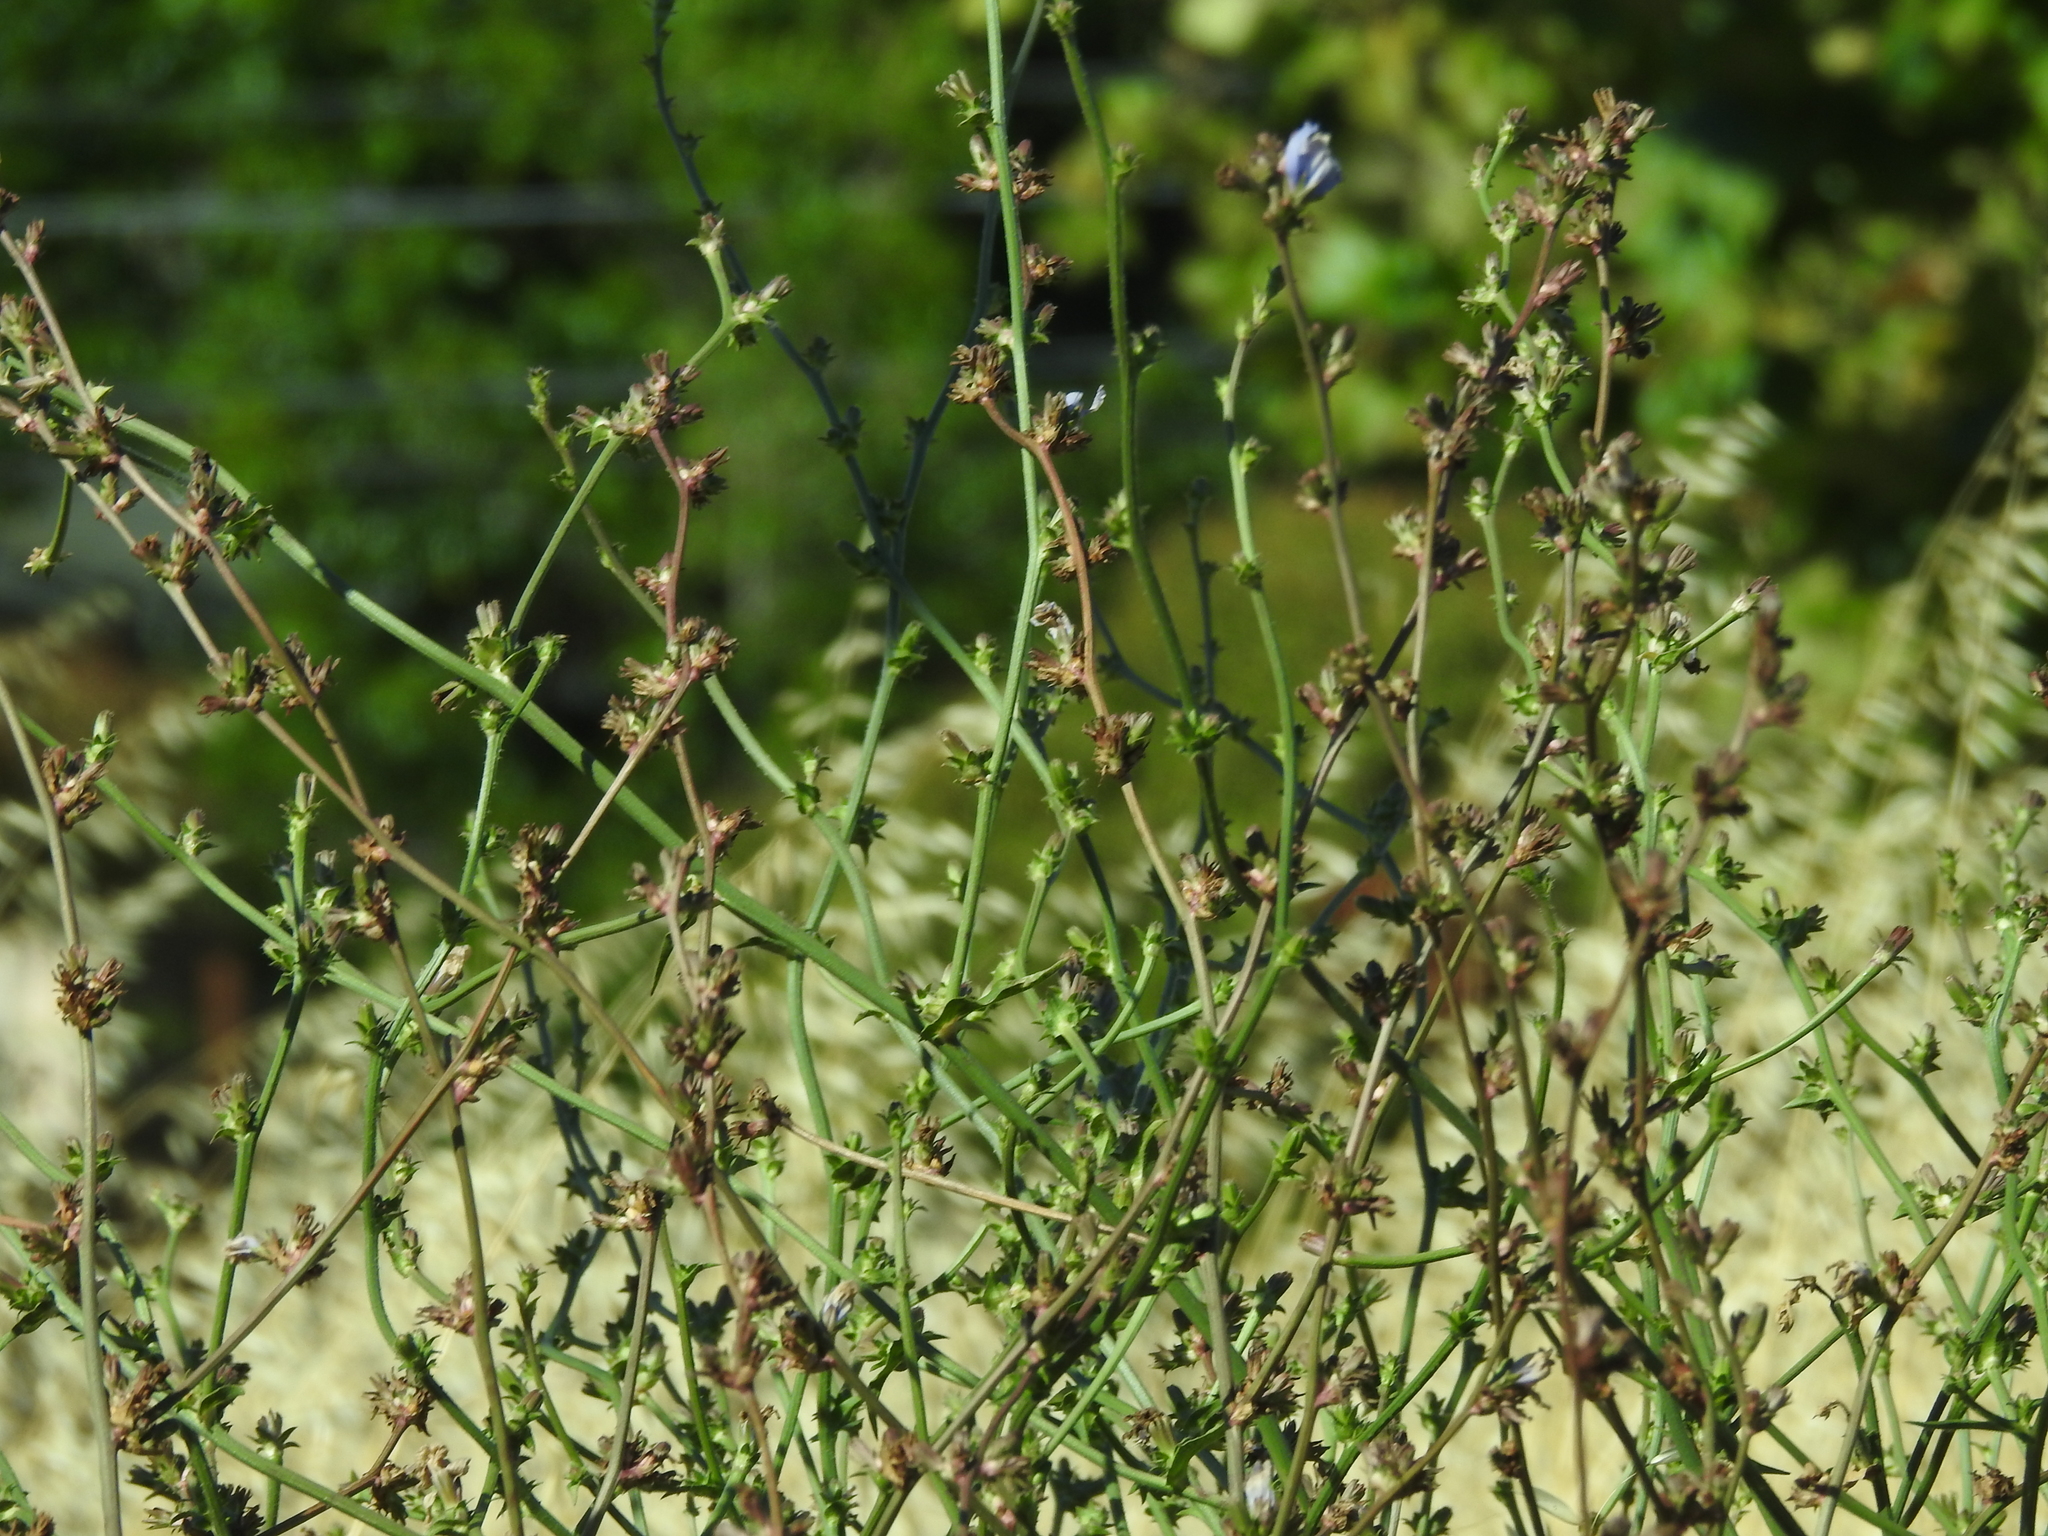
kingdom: Plantae
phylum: Tracheophyta
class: Magnoliopsida
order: Asterales
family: Asteraceae
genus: Cichorium
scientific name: Cichorium intybus
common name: Chicory
